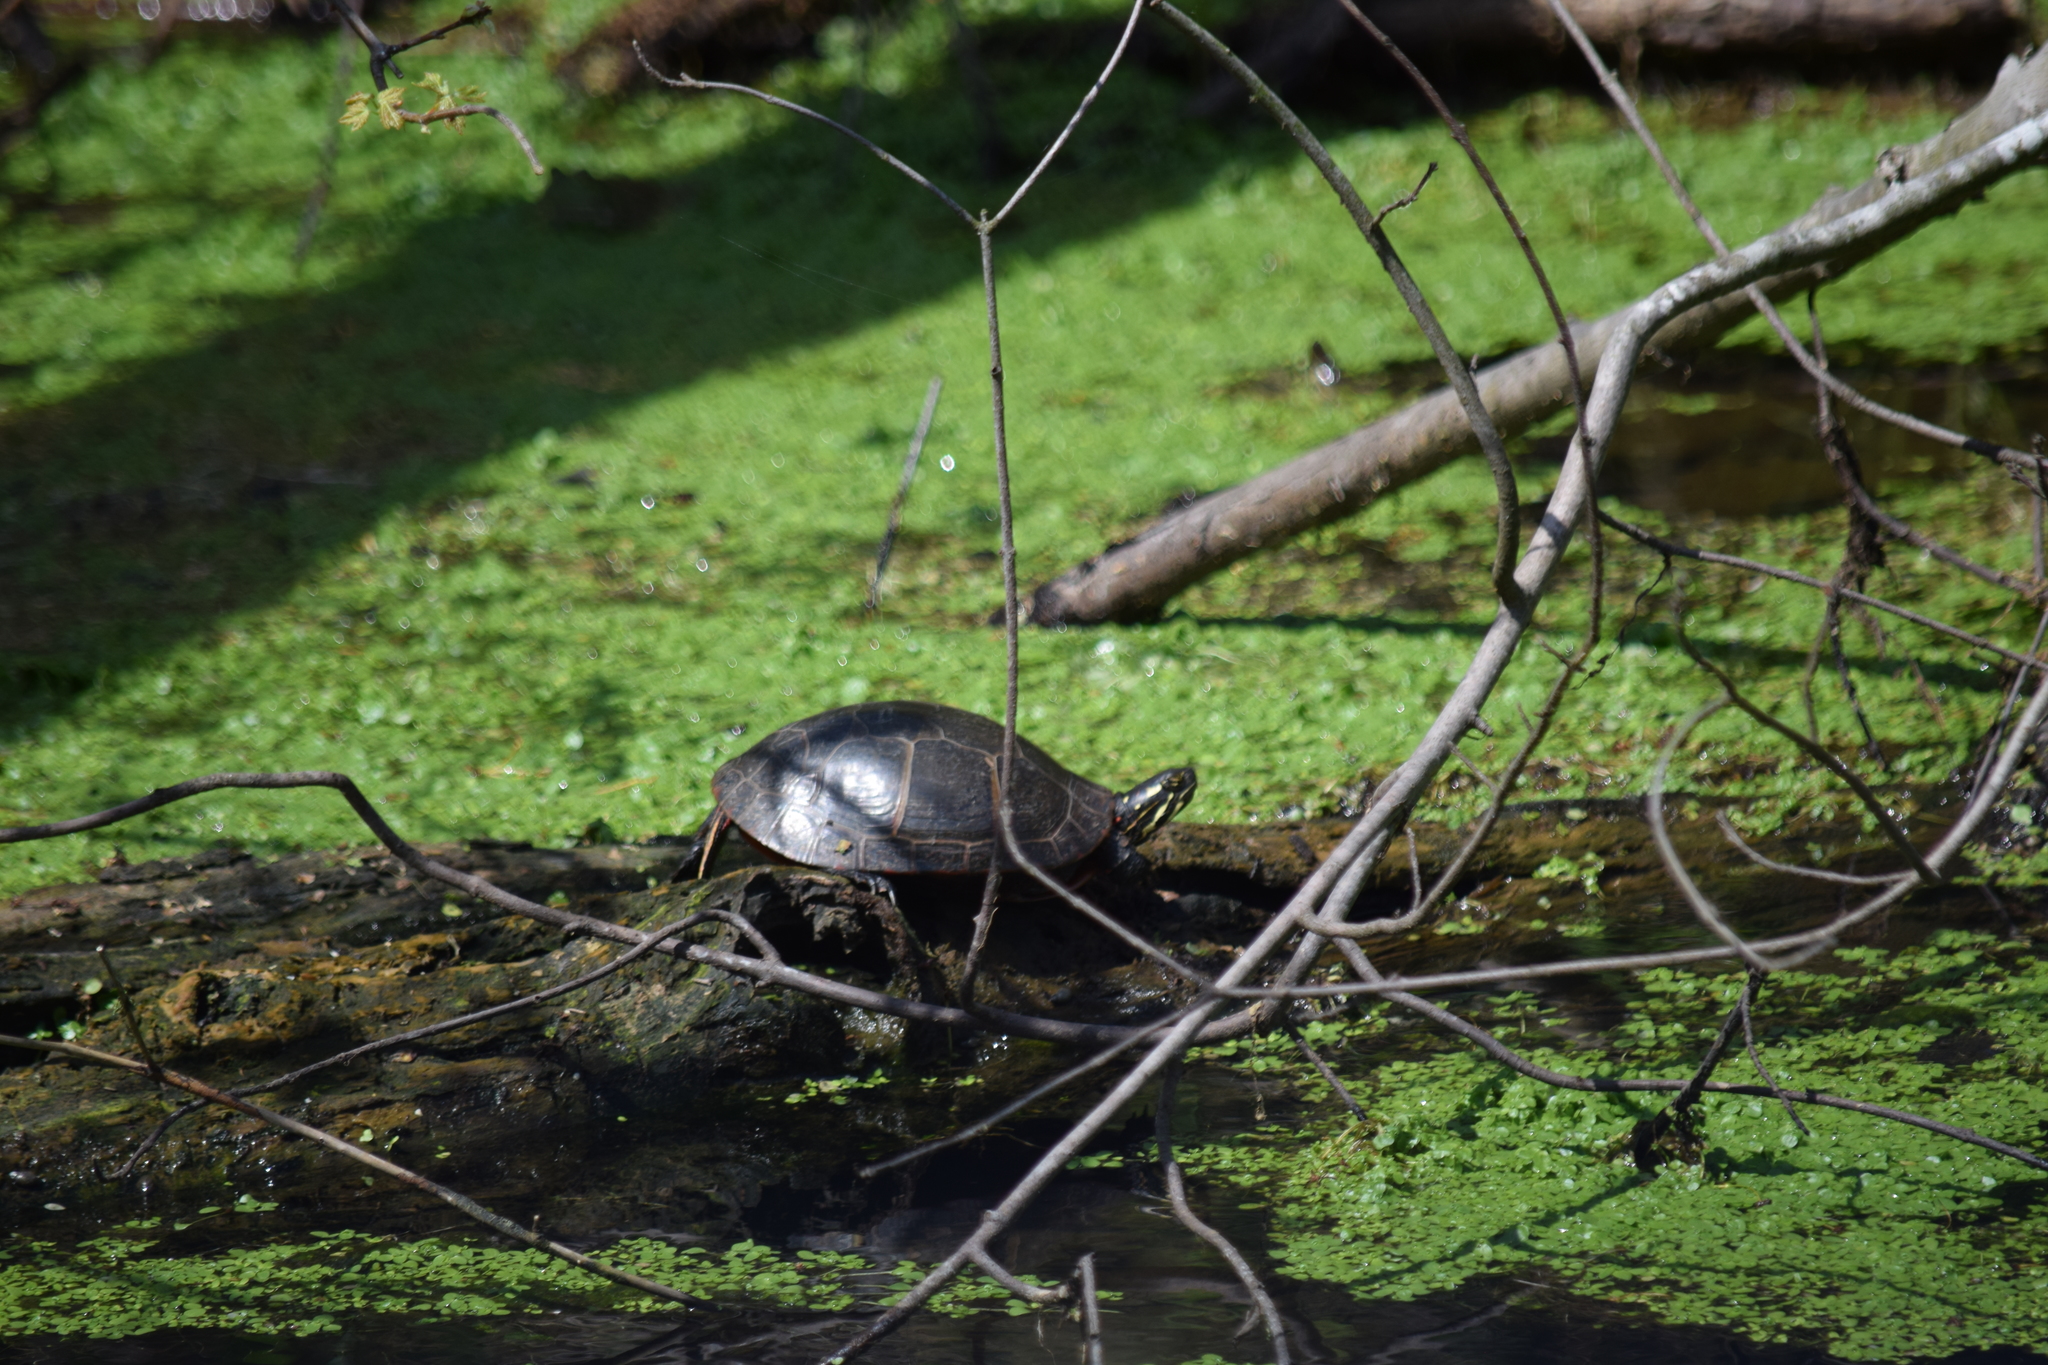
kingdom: Animalia
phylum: Chordata
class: Testudines
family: Emydidae
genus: Chrysemys
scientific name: Chrysemys picta
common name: Painted turtle
